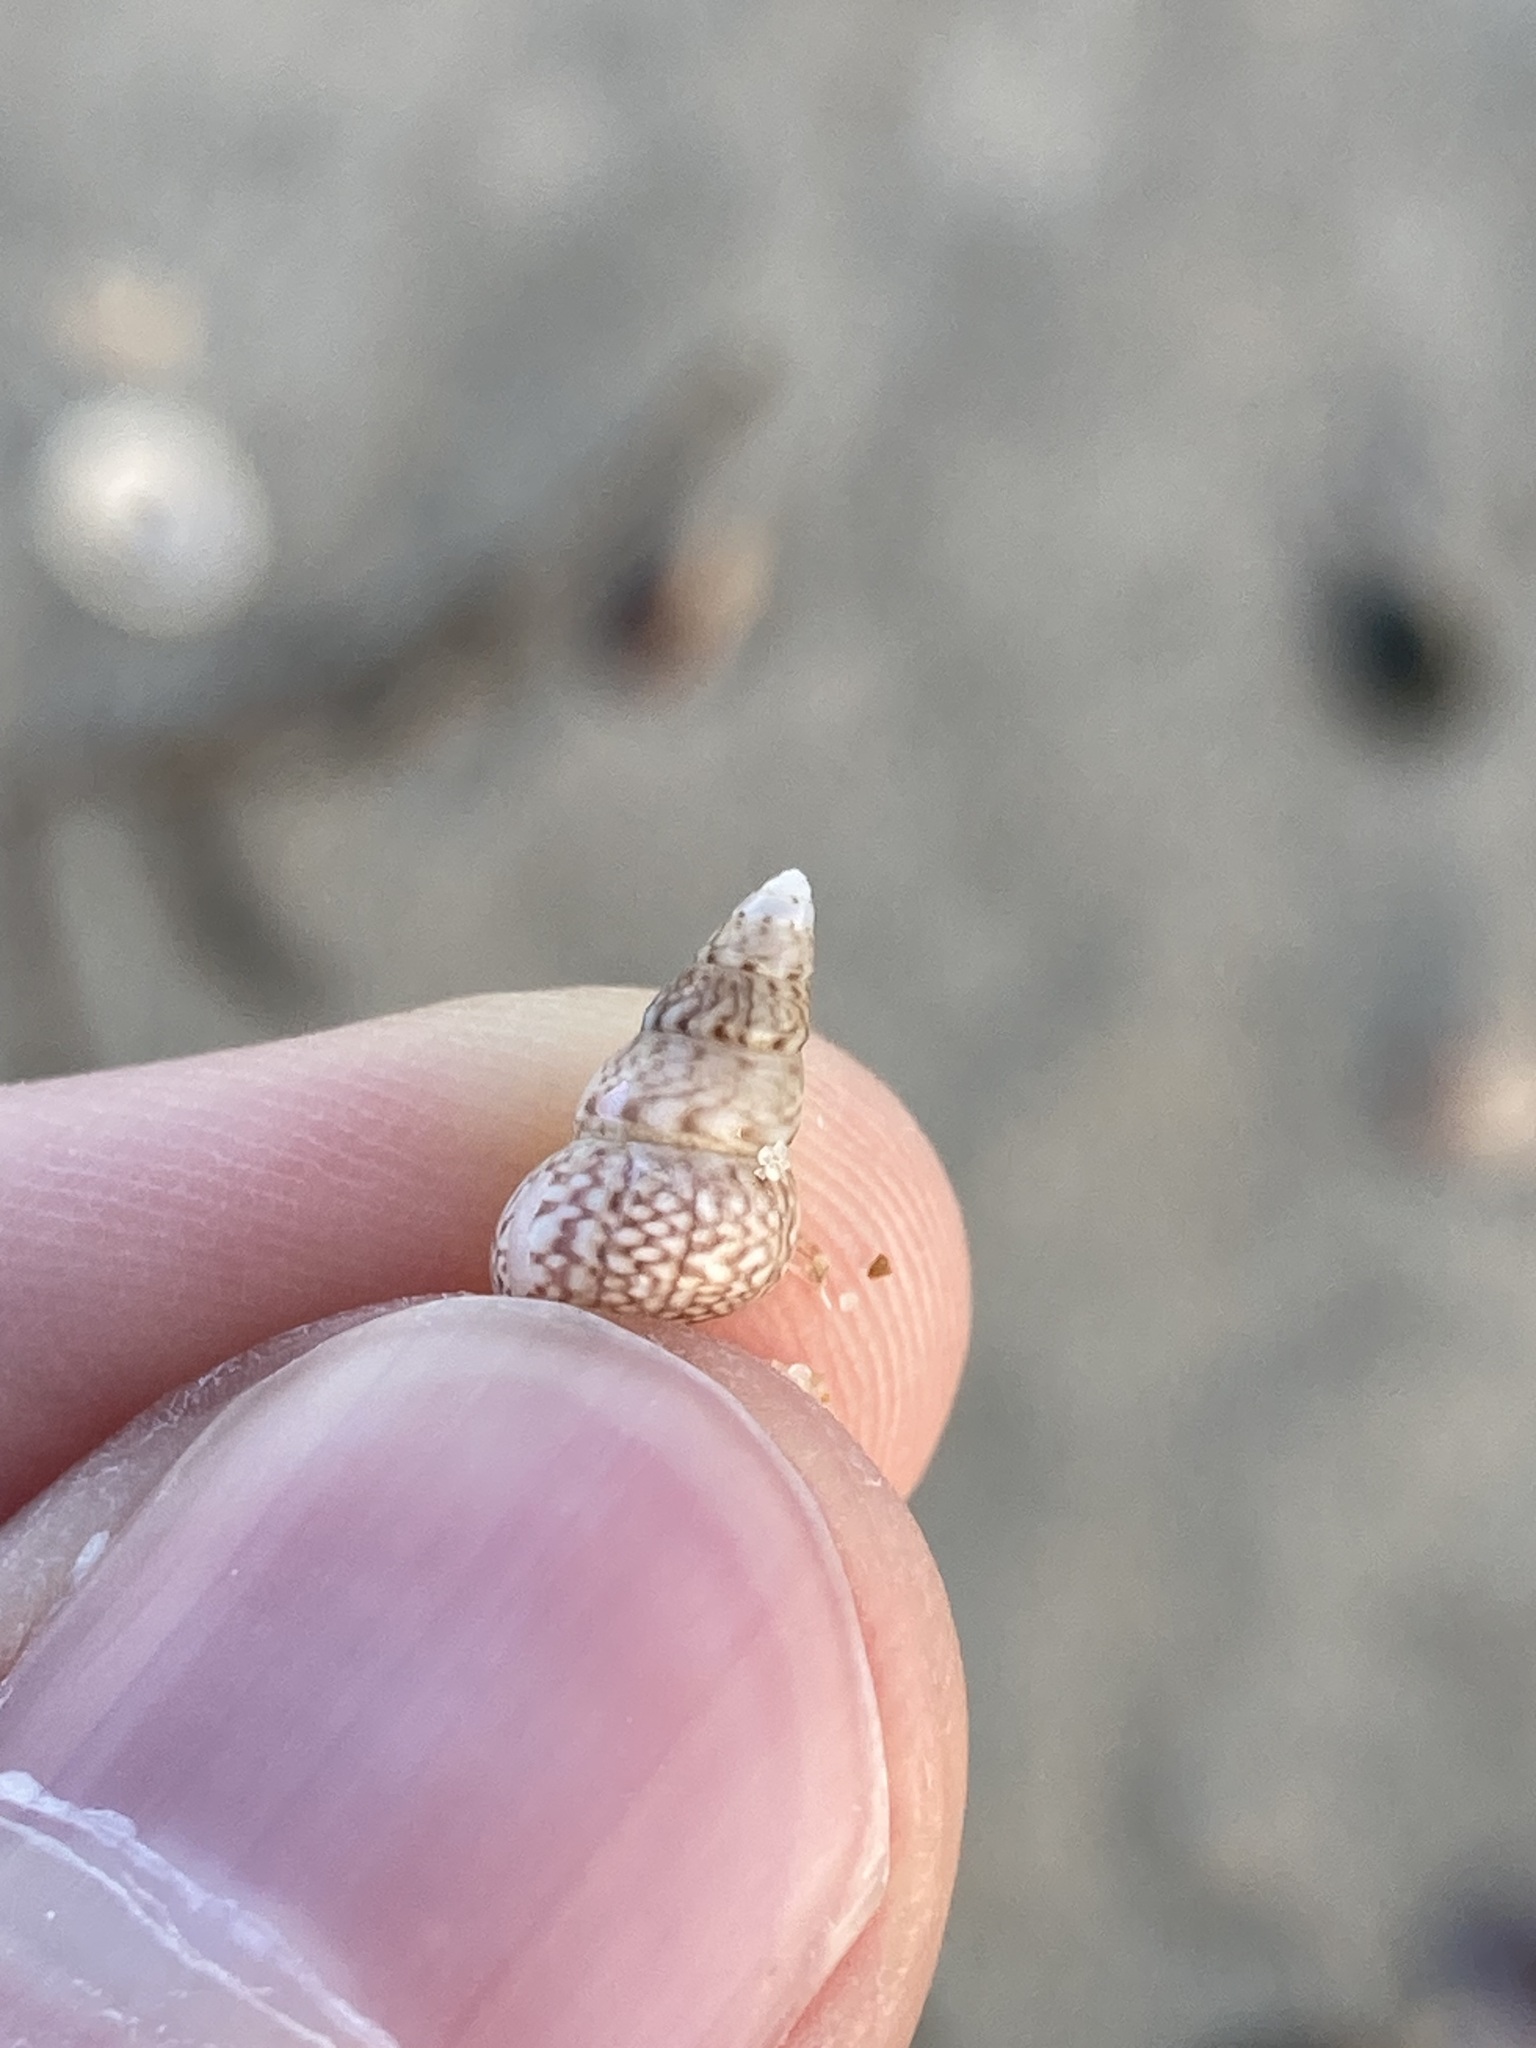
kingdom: Animalia
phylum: Mollusca
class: Gastropoda
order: Trochida
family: Trochidae
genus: Leiopyrga
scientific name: Leiopyrga lineolaris
